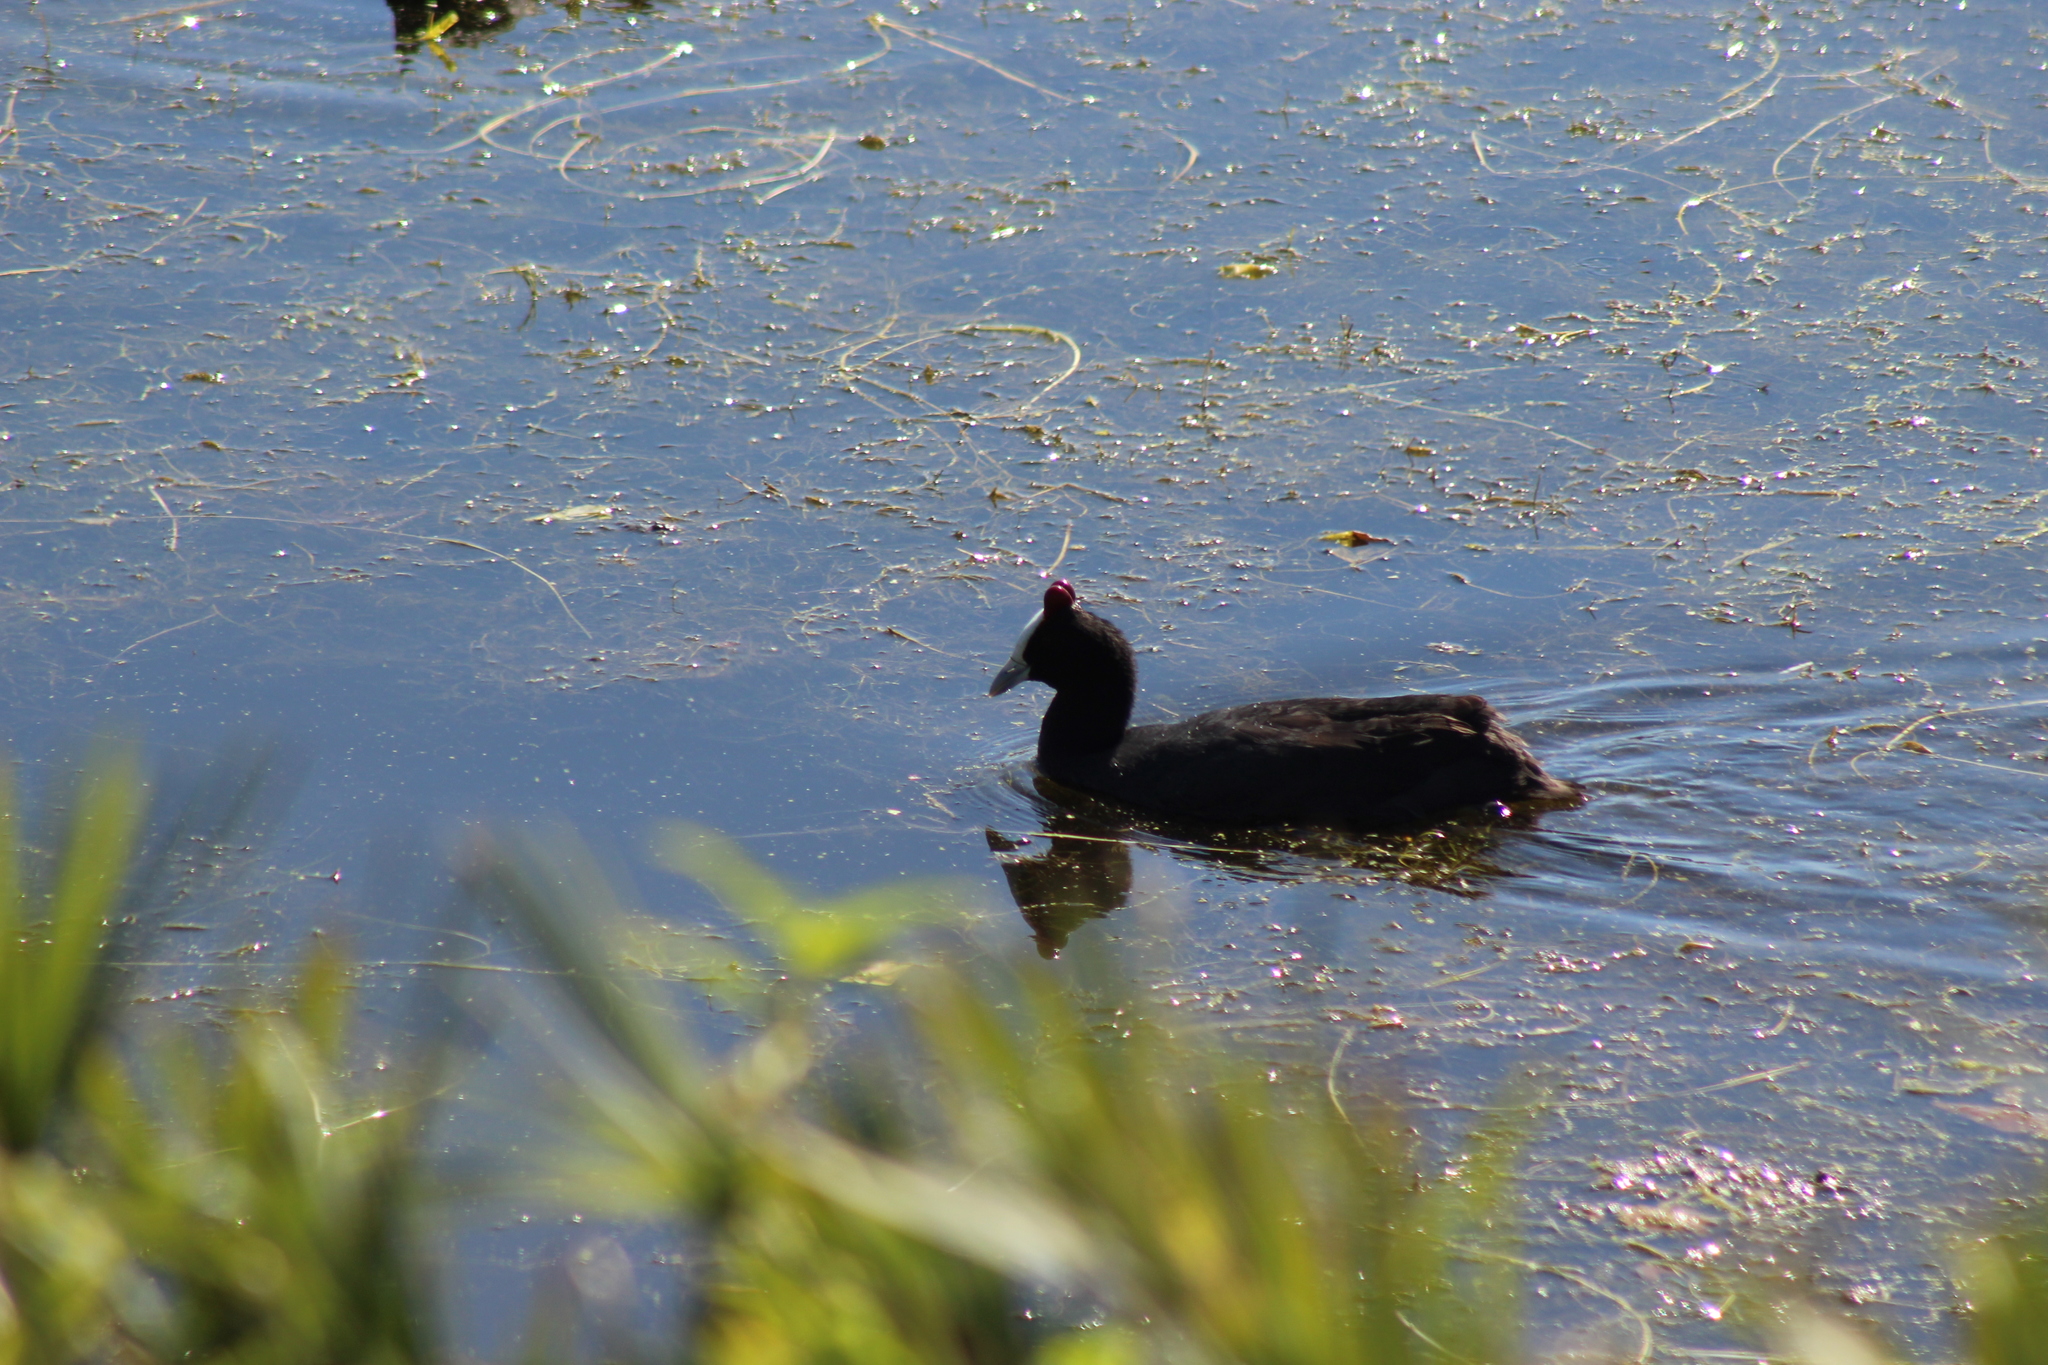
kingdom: Animalia
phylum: Chordata
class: Aves
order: Gruiformes
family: Rallidae
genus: Fulica
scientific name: Fulica cristata
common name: Red-knobbed coot
